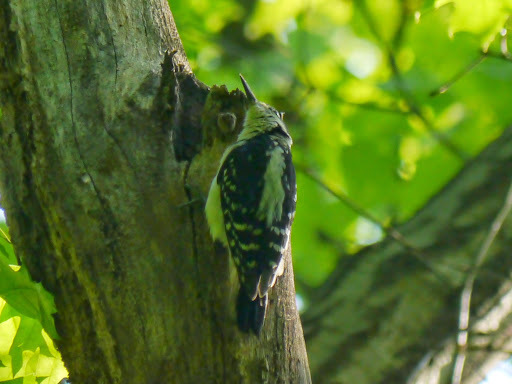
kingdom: Animalia
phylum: Chordata
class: Aves
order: Piciformes
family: Picidae
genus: Leuconotopicus
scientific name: Leuconotopicus villosus
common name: Hairy woodpecker
